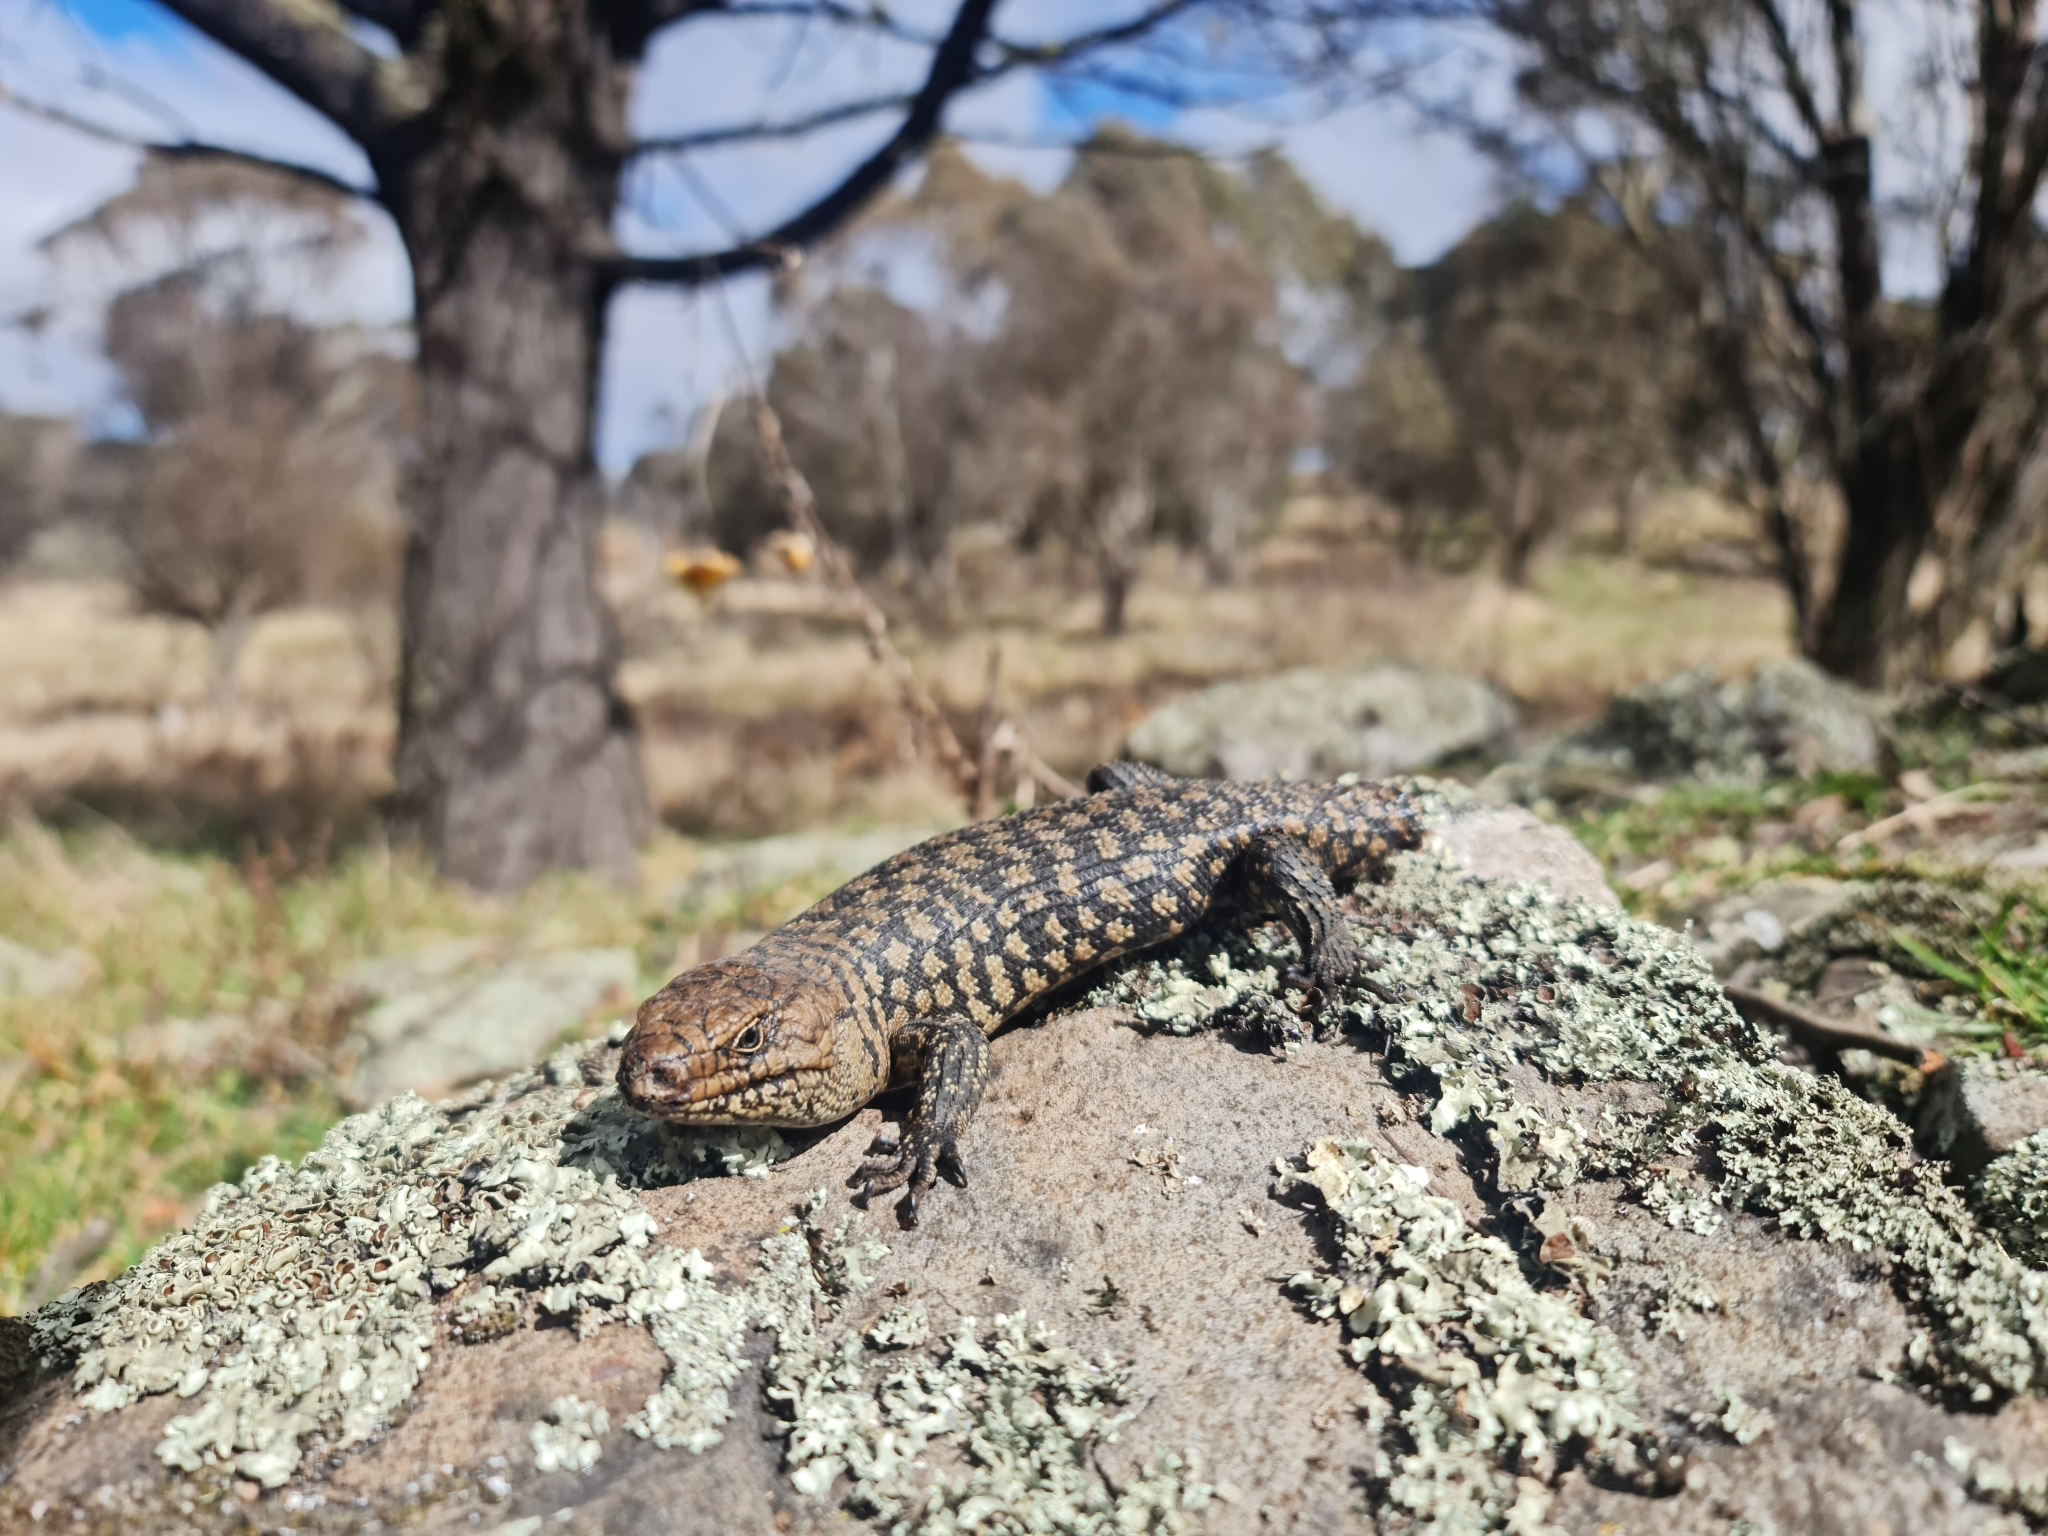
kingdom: Animalia
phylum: Chordata
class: Squamata
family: Scincidae
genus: Egernia
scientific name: Egernia cunninghami
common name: Cunningham's skink
